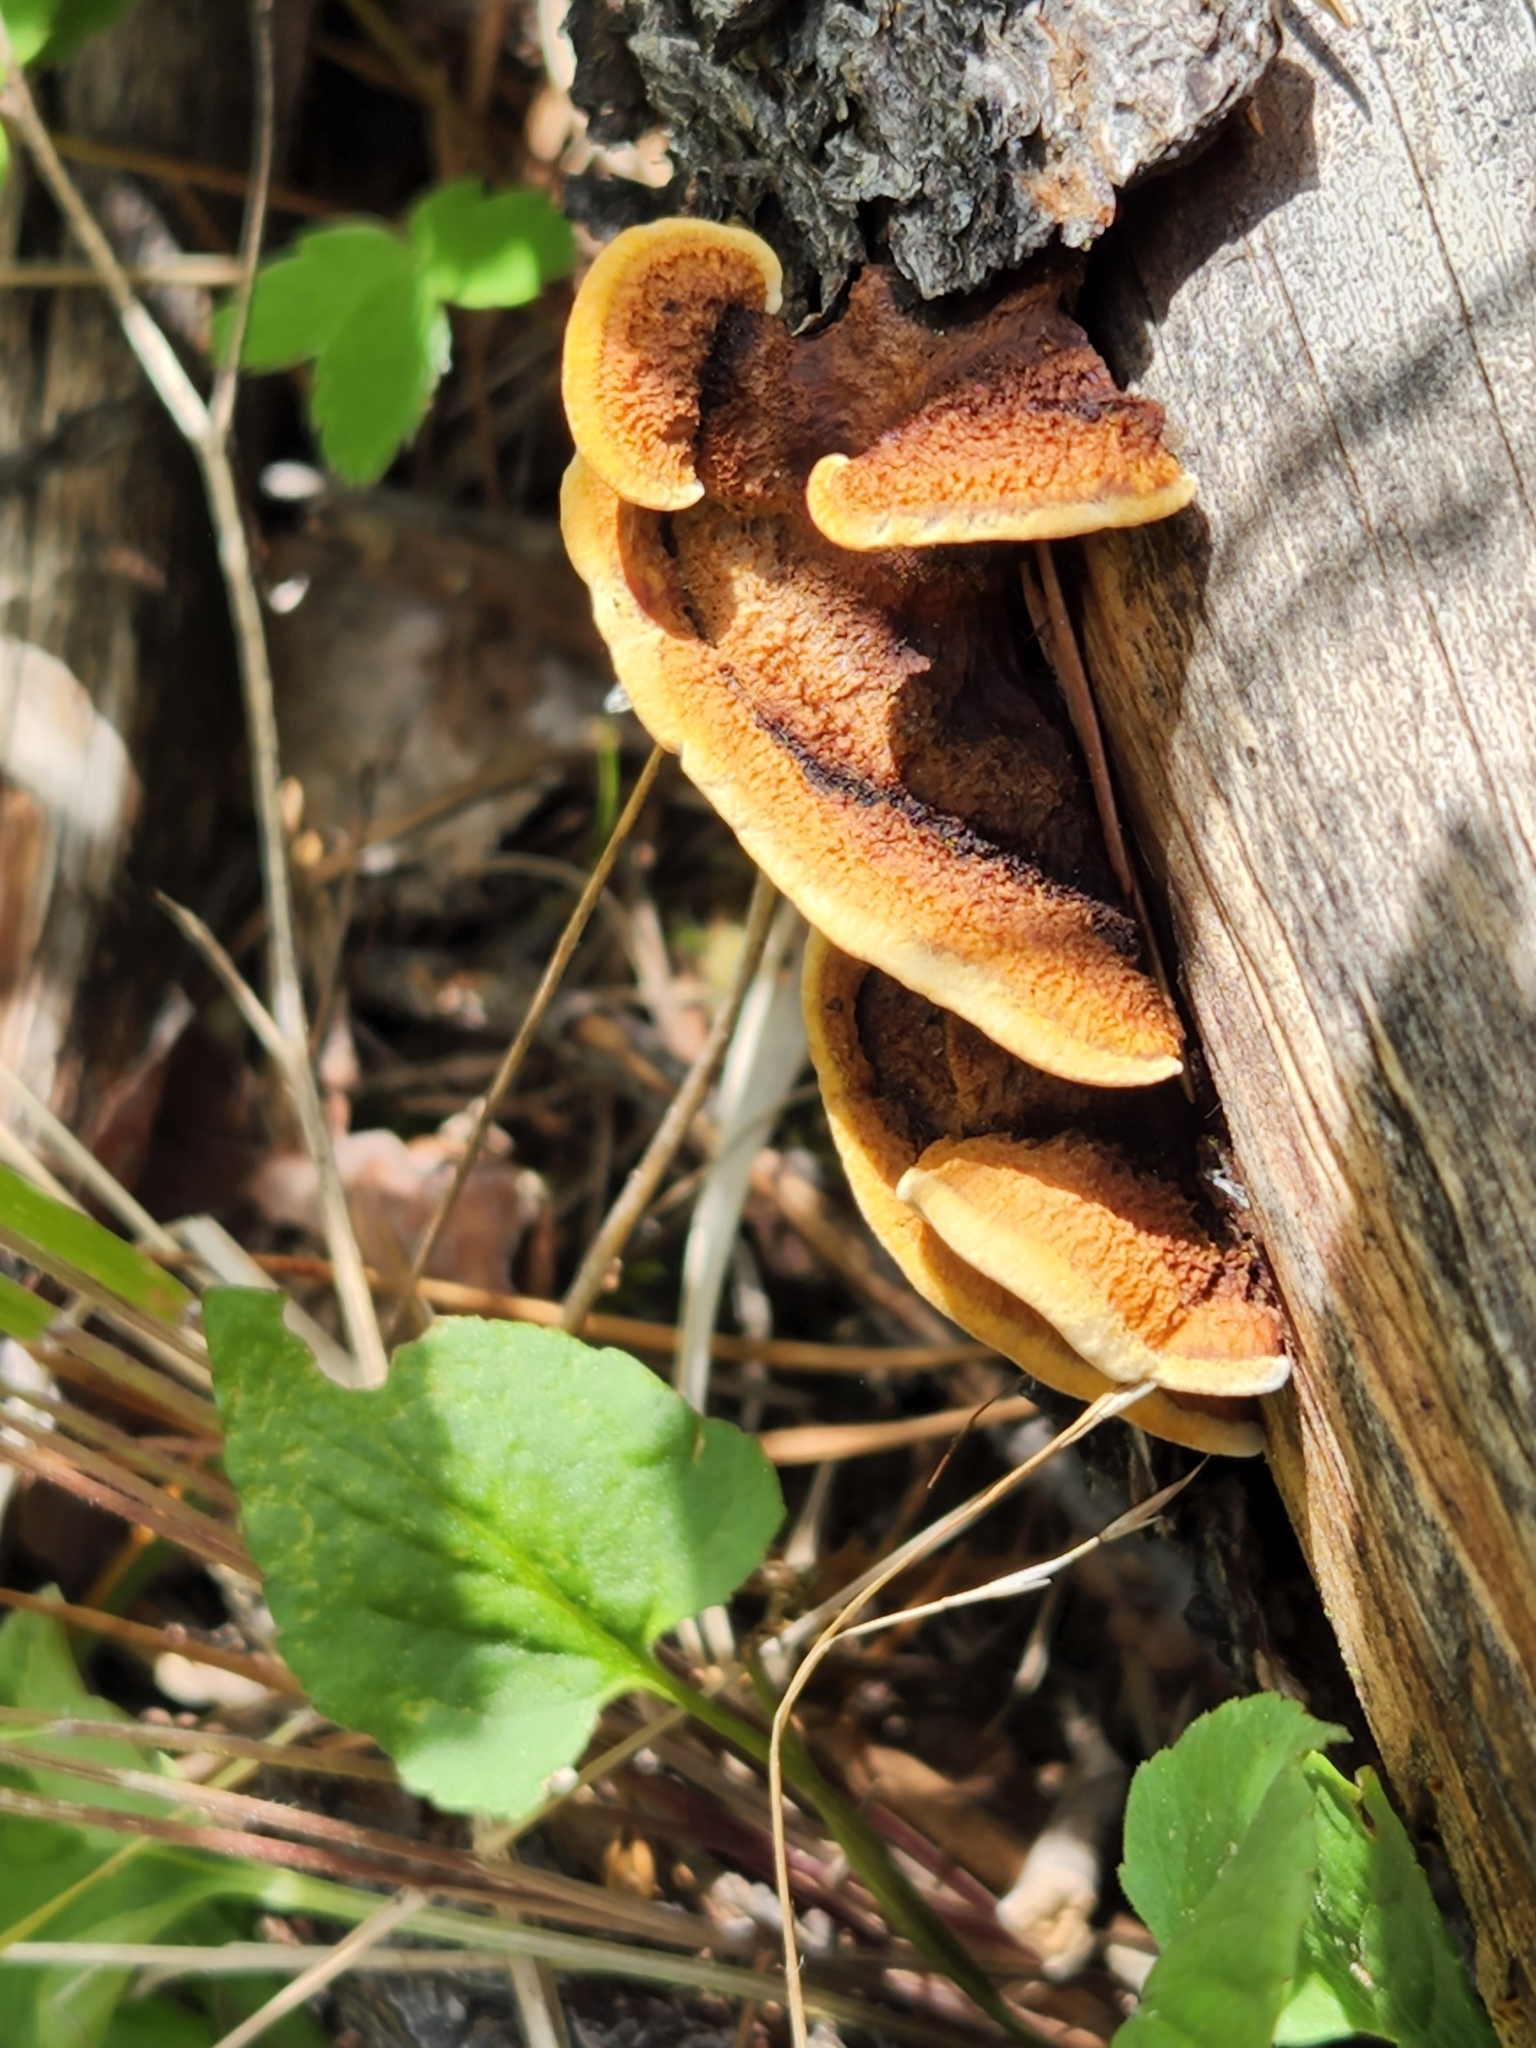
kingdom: Fungi
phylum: Basidiomycota
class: Agaricomycetes
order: Gloeophyllales
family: Gloeophyllaceae
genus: Gloeophyllum
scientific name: Gloeophyllum sepiarium
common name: Conifer mazegill
